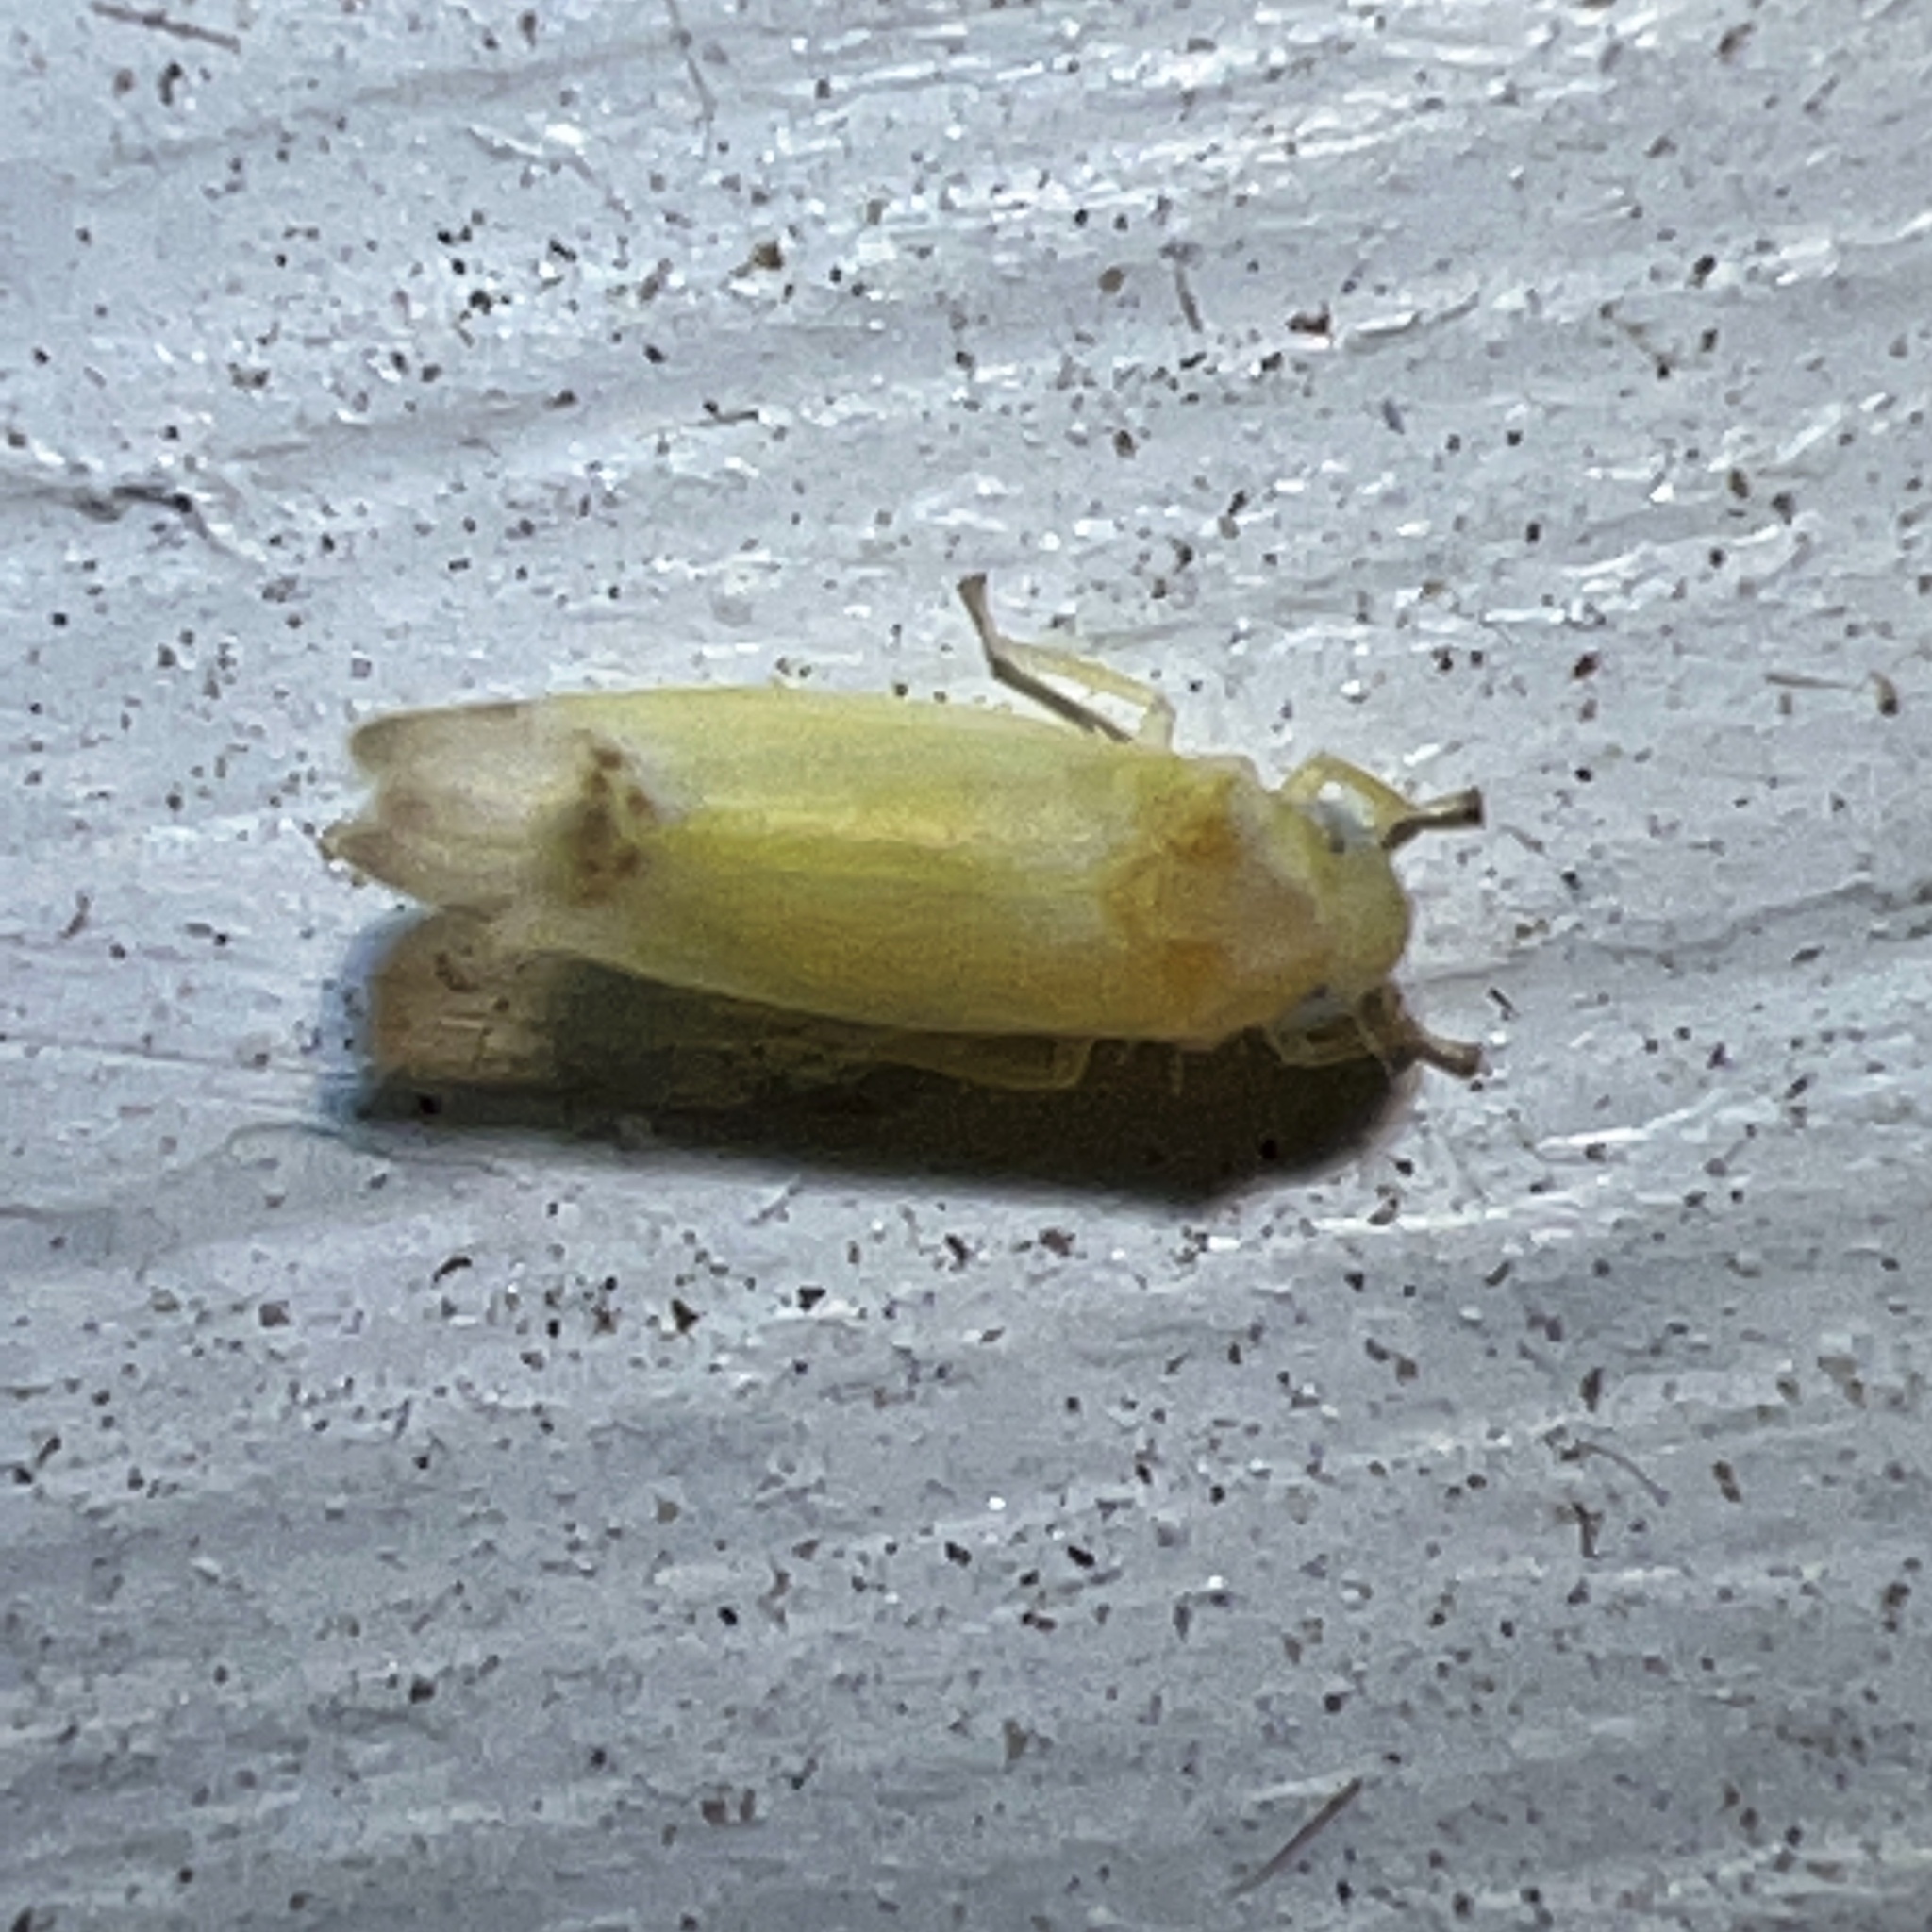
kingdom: Animalia
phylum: Arthropoda
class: Insecta
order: Hemiptera
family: Cicadellidae
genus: Empoa
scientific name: Empoa saffrana
